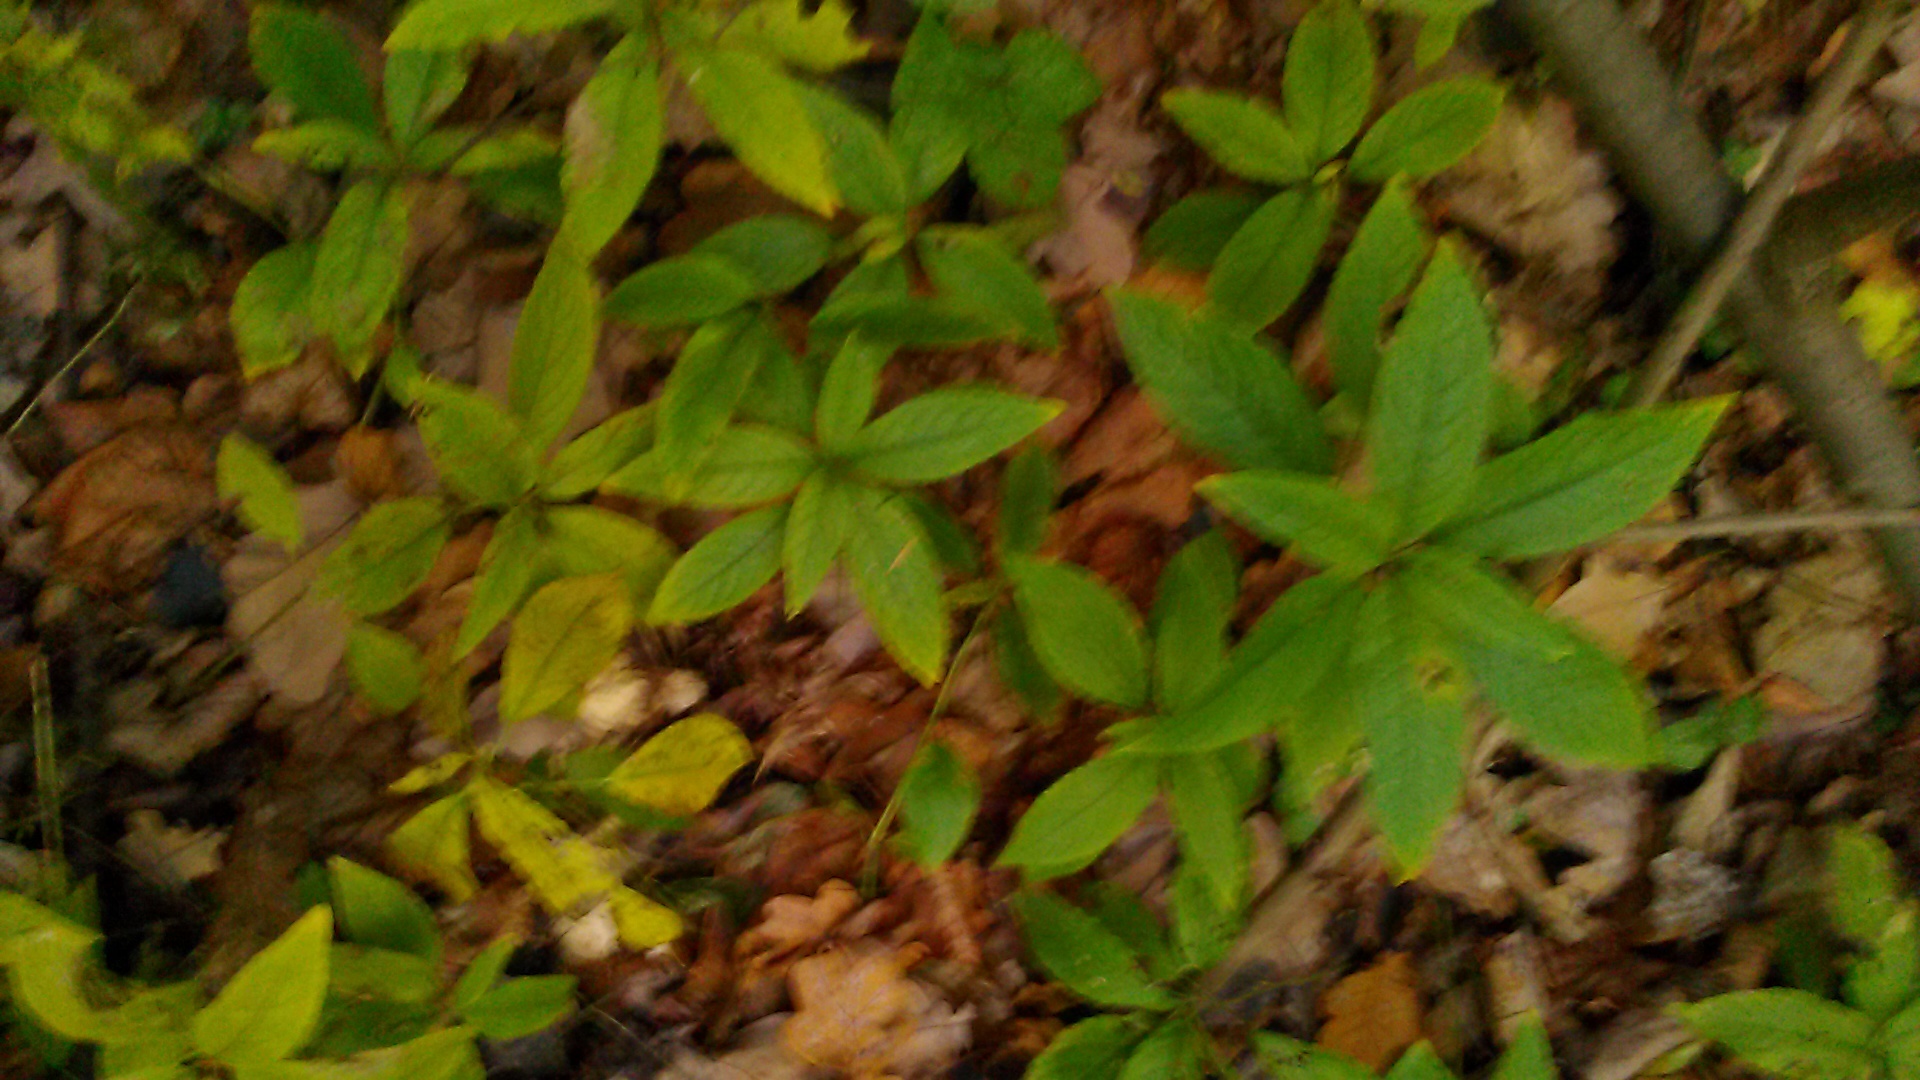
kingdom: Plantae
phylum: Tracheophyta
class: Magnoliopsida
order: Malpighiales
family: Euphorbiaceae
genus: Mercurialis
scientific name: Mercurialis perennis
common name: Dog mercury
